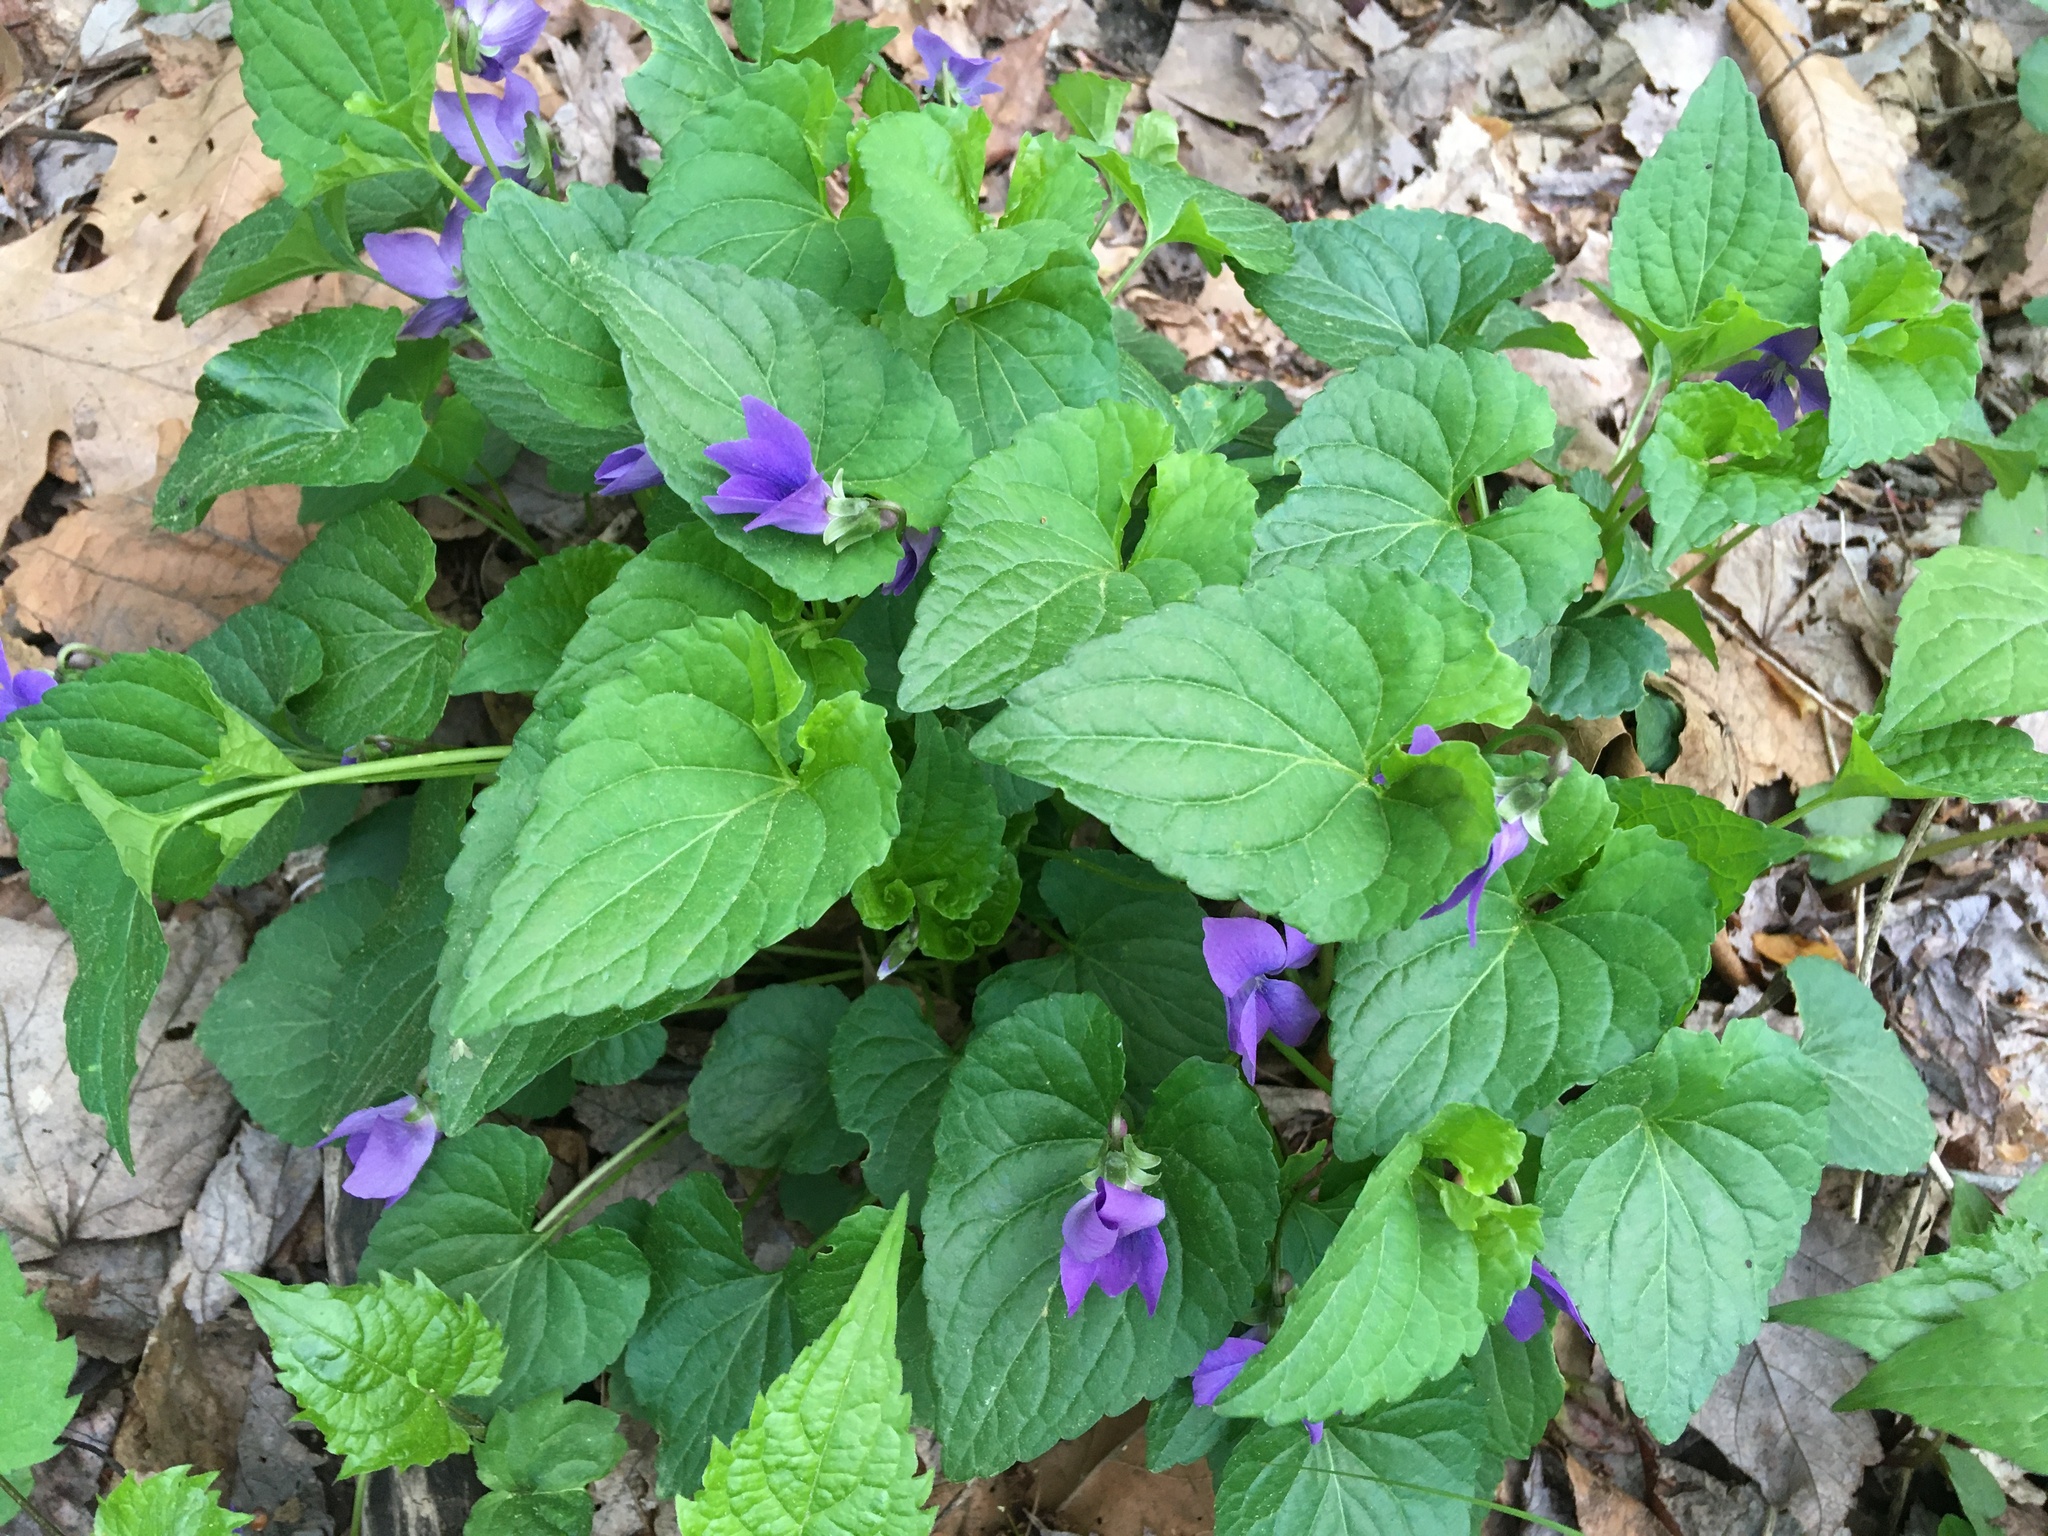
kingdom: Plantae
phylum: Tracheophyta
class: Magnoliopsida
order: Malpighiales
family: Violaceae
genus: Viola
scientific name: Viola sororia
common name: Dooryard violet
